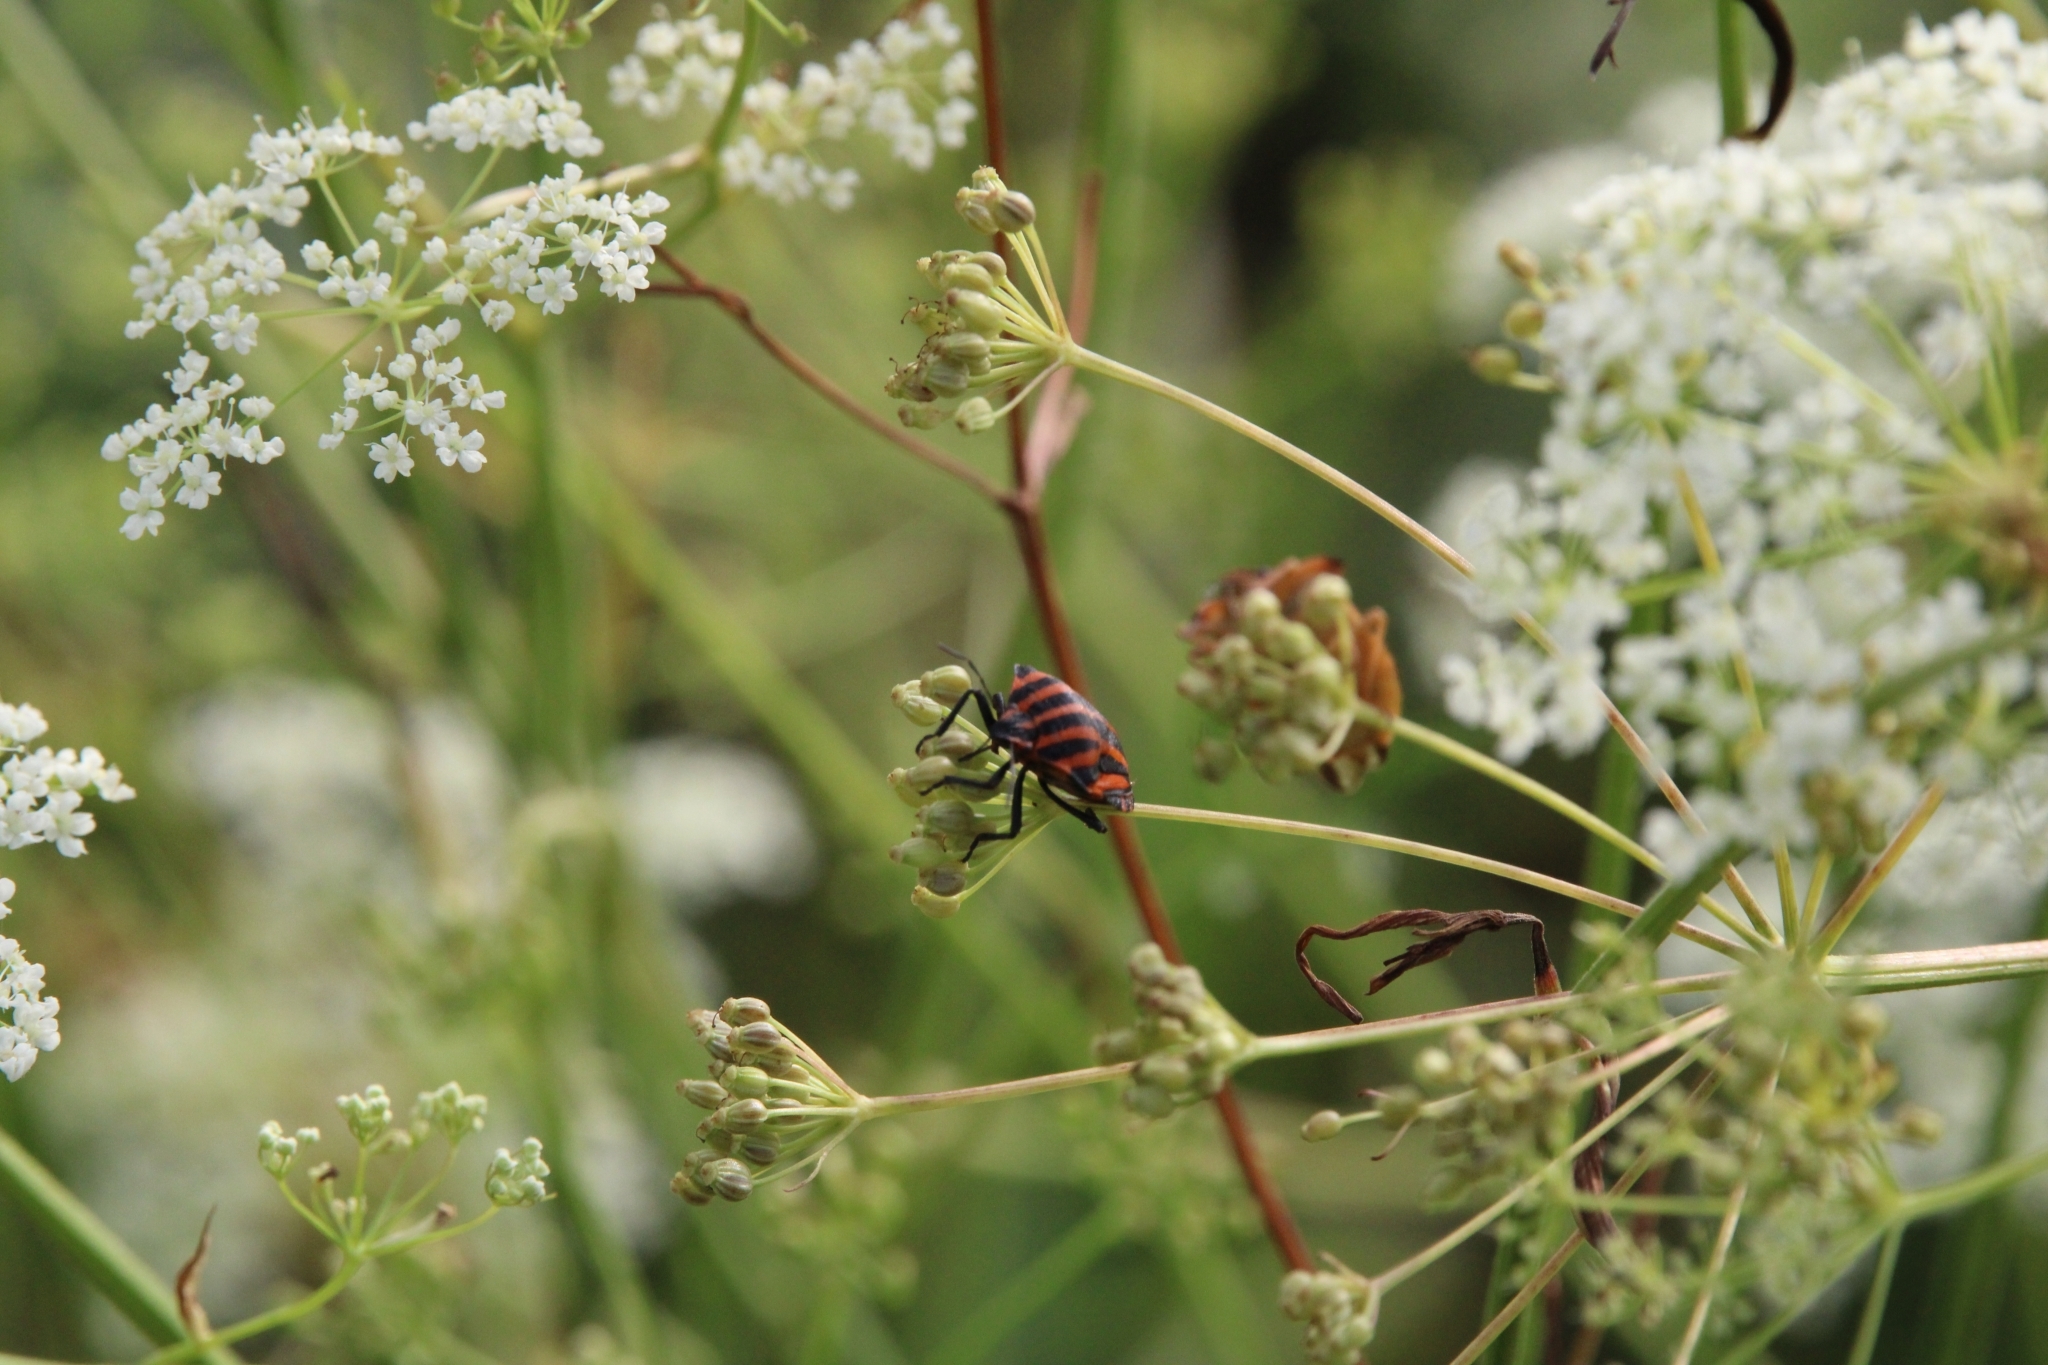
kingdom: Animalia
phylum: Arthropoda
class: Insecta
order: Hemiptera
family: Pentatomidae
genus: Graphosoma
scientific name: Graphosoma italicum
